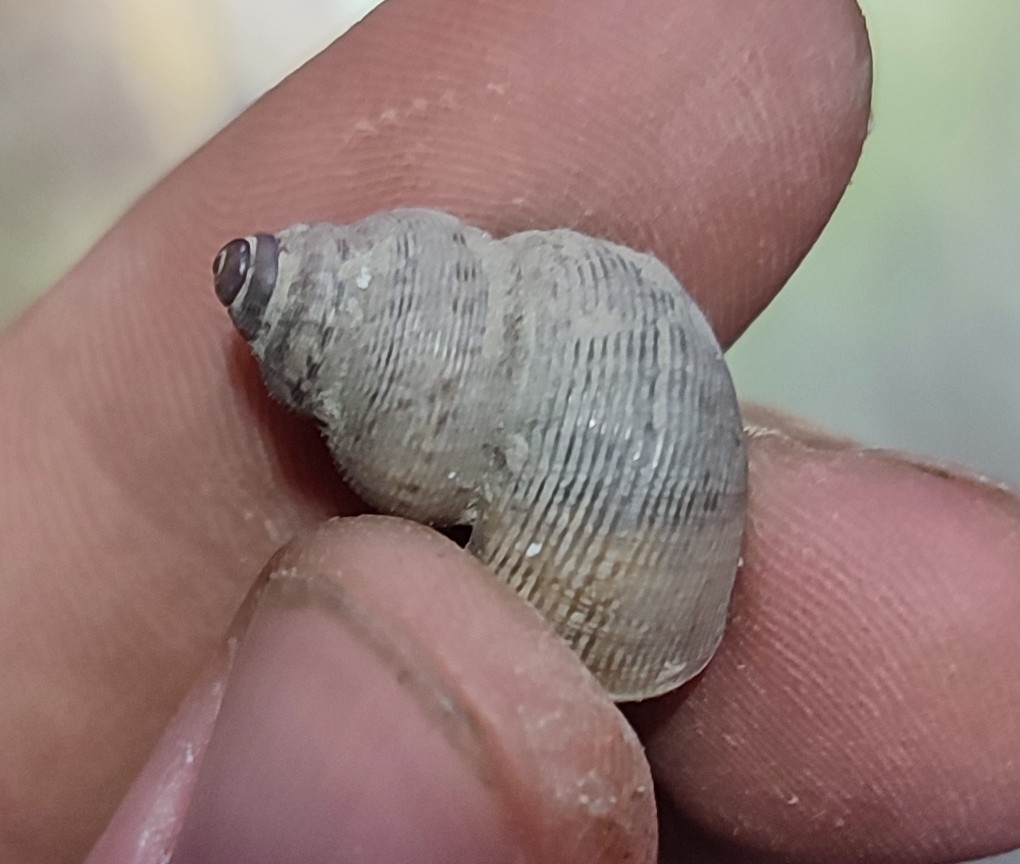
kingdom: Animalia
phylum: Mollusca
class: Gastropoda
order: Littorinimorpha
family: Pomatiidae
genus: Pomatias
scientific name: Pomatias elegans
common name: Red-mouthed snail
